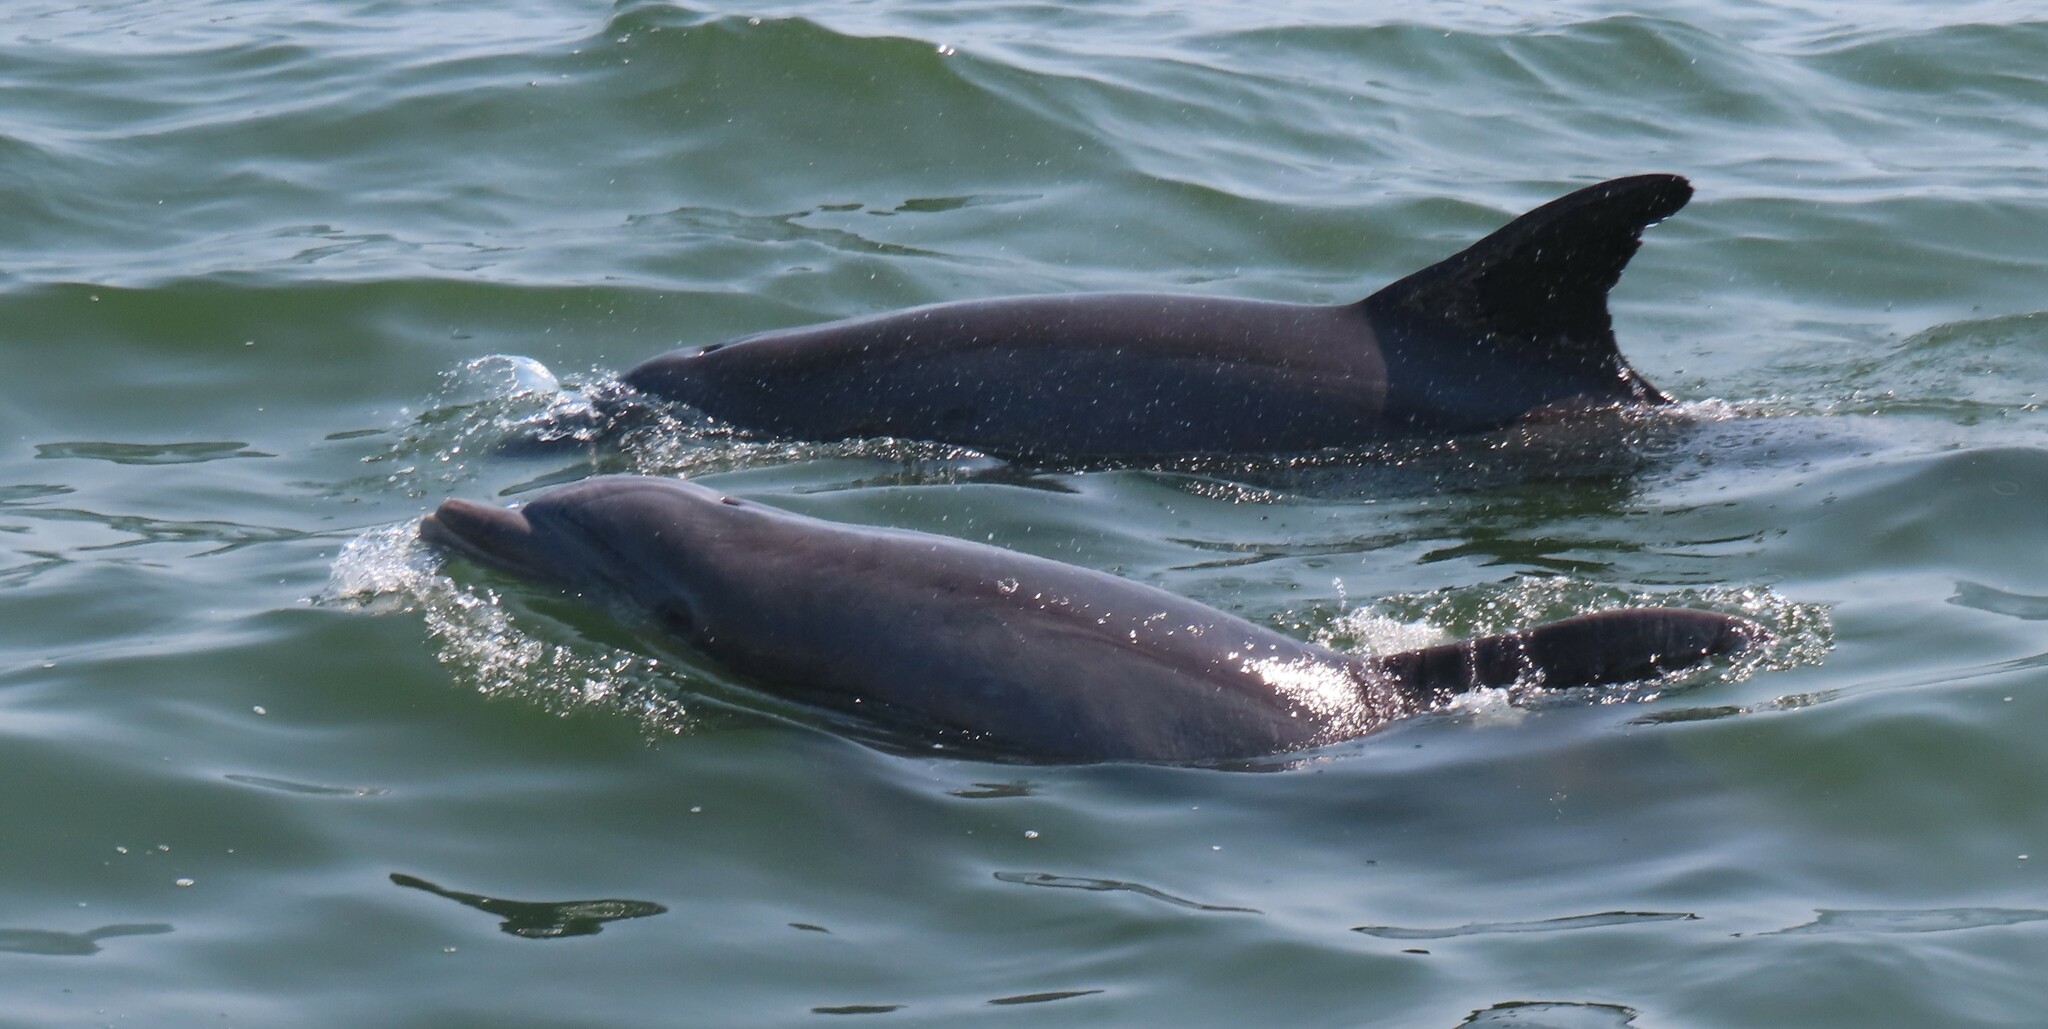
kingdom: Animalia
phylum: Chordata
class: Mammalia
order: Cetacea
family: Delphinidae
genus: Tursiops
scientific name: Tursiops truncatus
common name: Bottlenose dolphin
